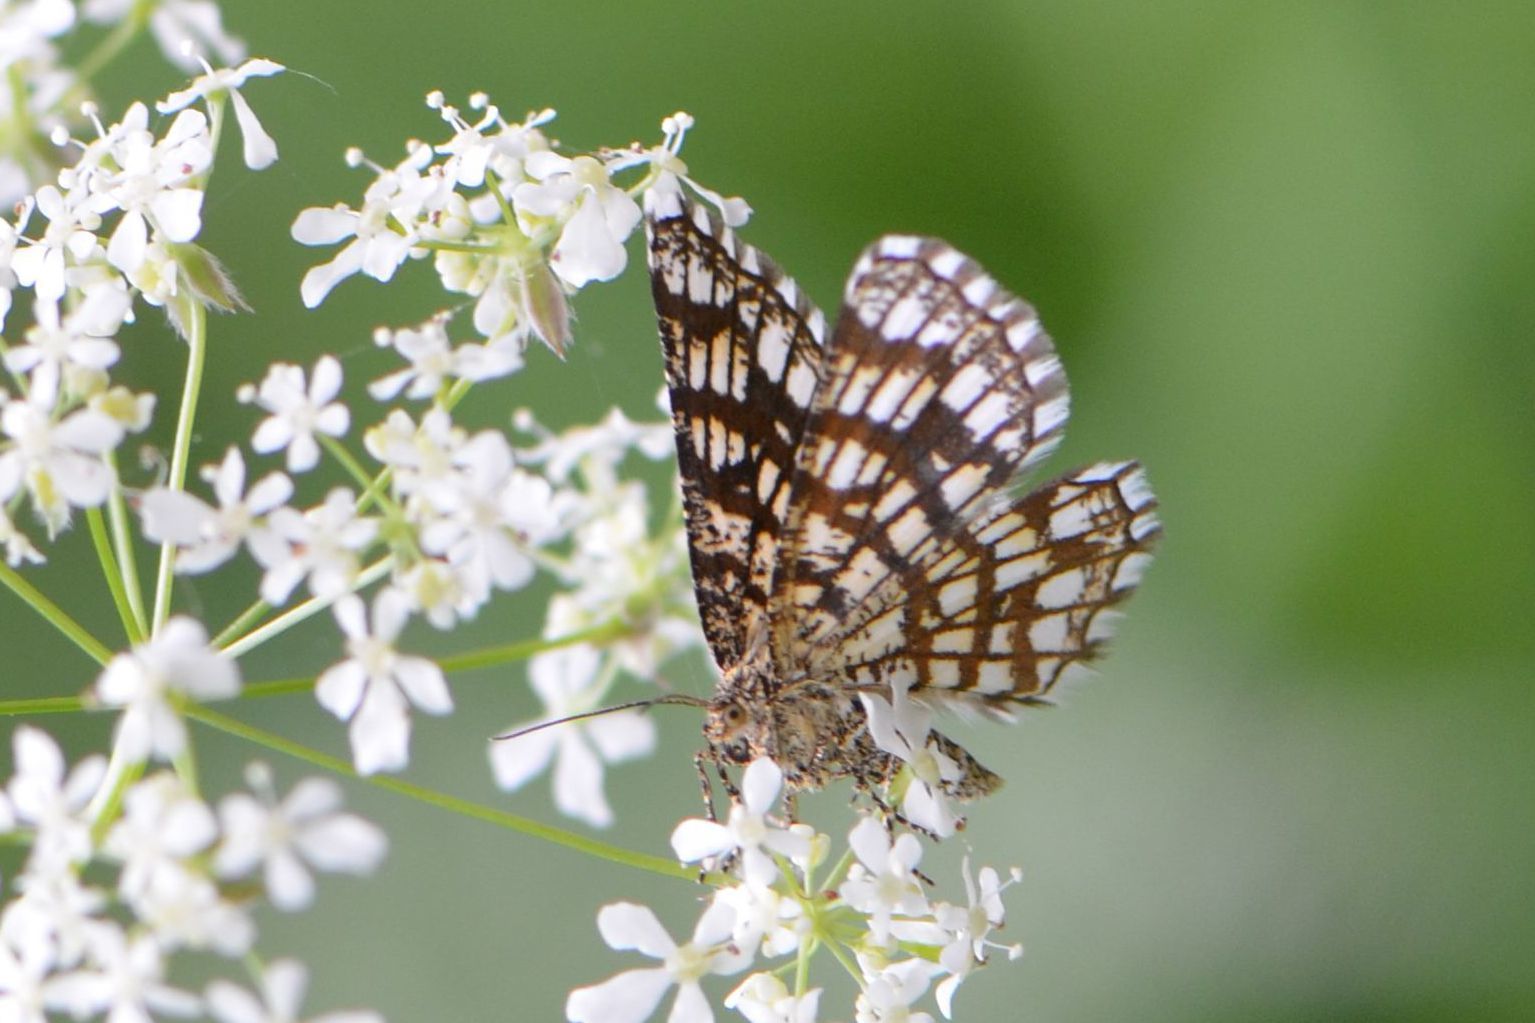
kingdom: Animalia
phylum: Arthropoda
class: Insecta
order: Lepidoptera
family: Geometridae
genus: Chiasmia
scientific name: Chiasmia clathrata
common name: Latticed heath
